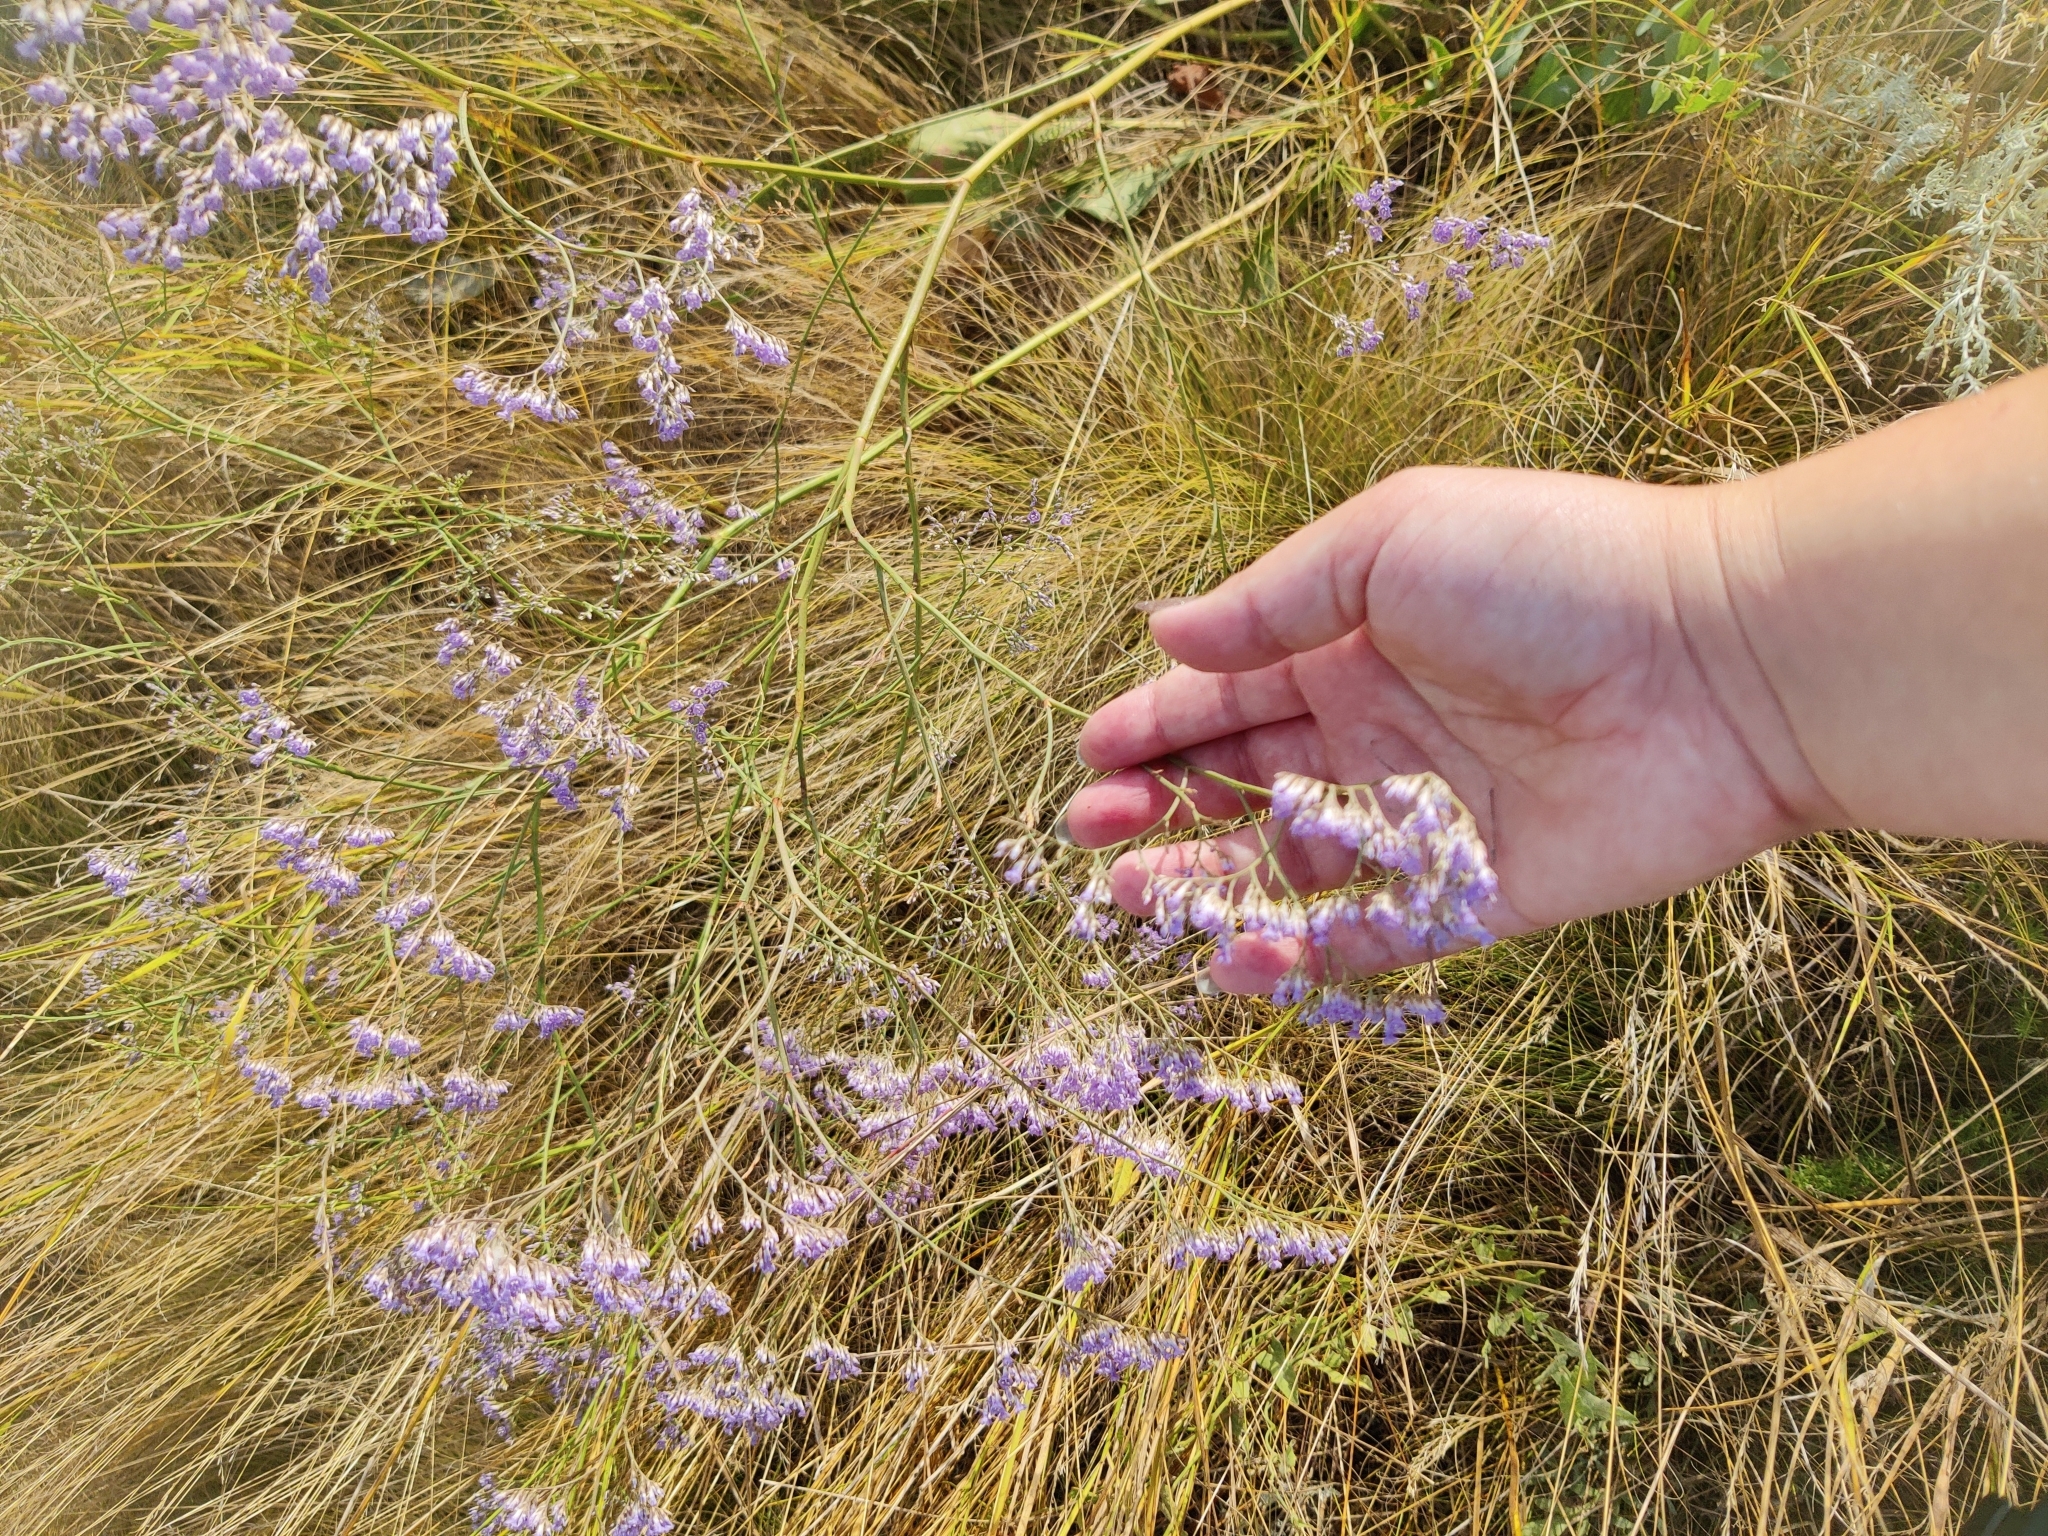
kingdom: Plantae
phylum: Tracheophyta
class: Magnoliopsida
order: Caryophyllales
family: Plumbaginaceae
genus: Limonium
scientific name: Limonium gmelini
